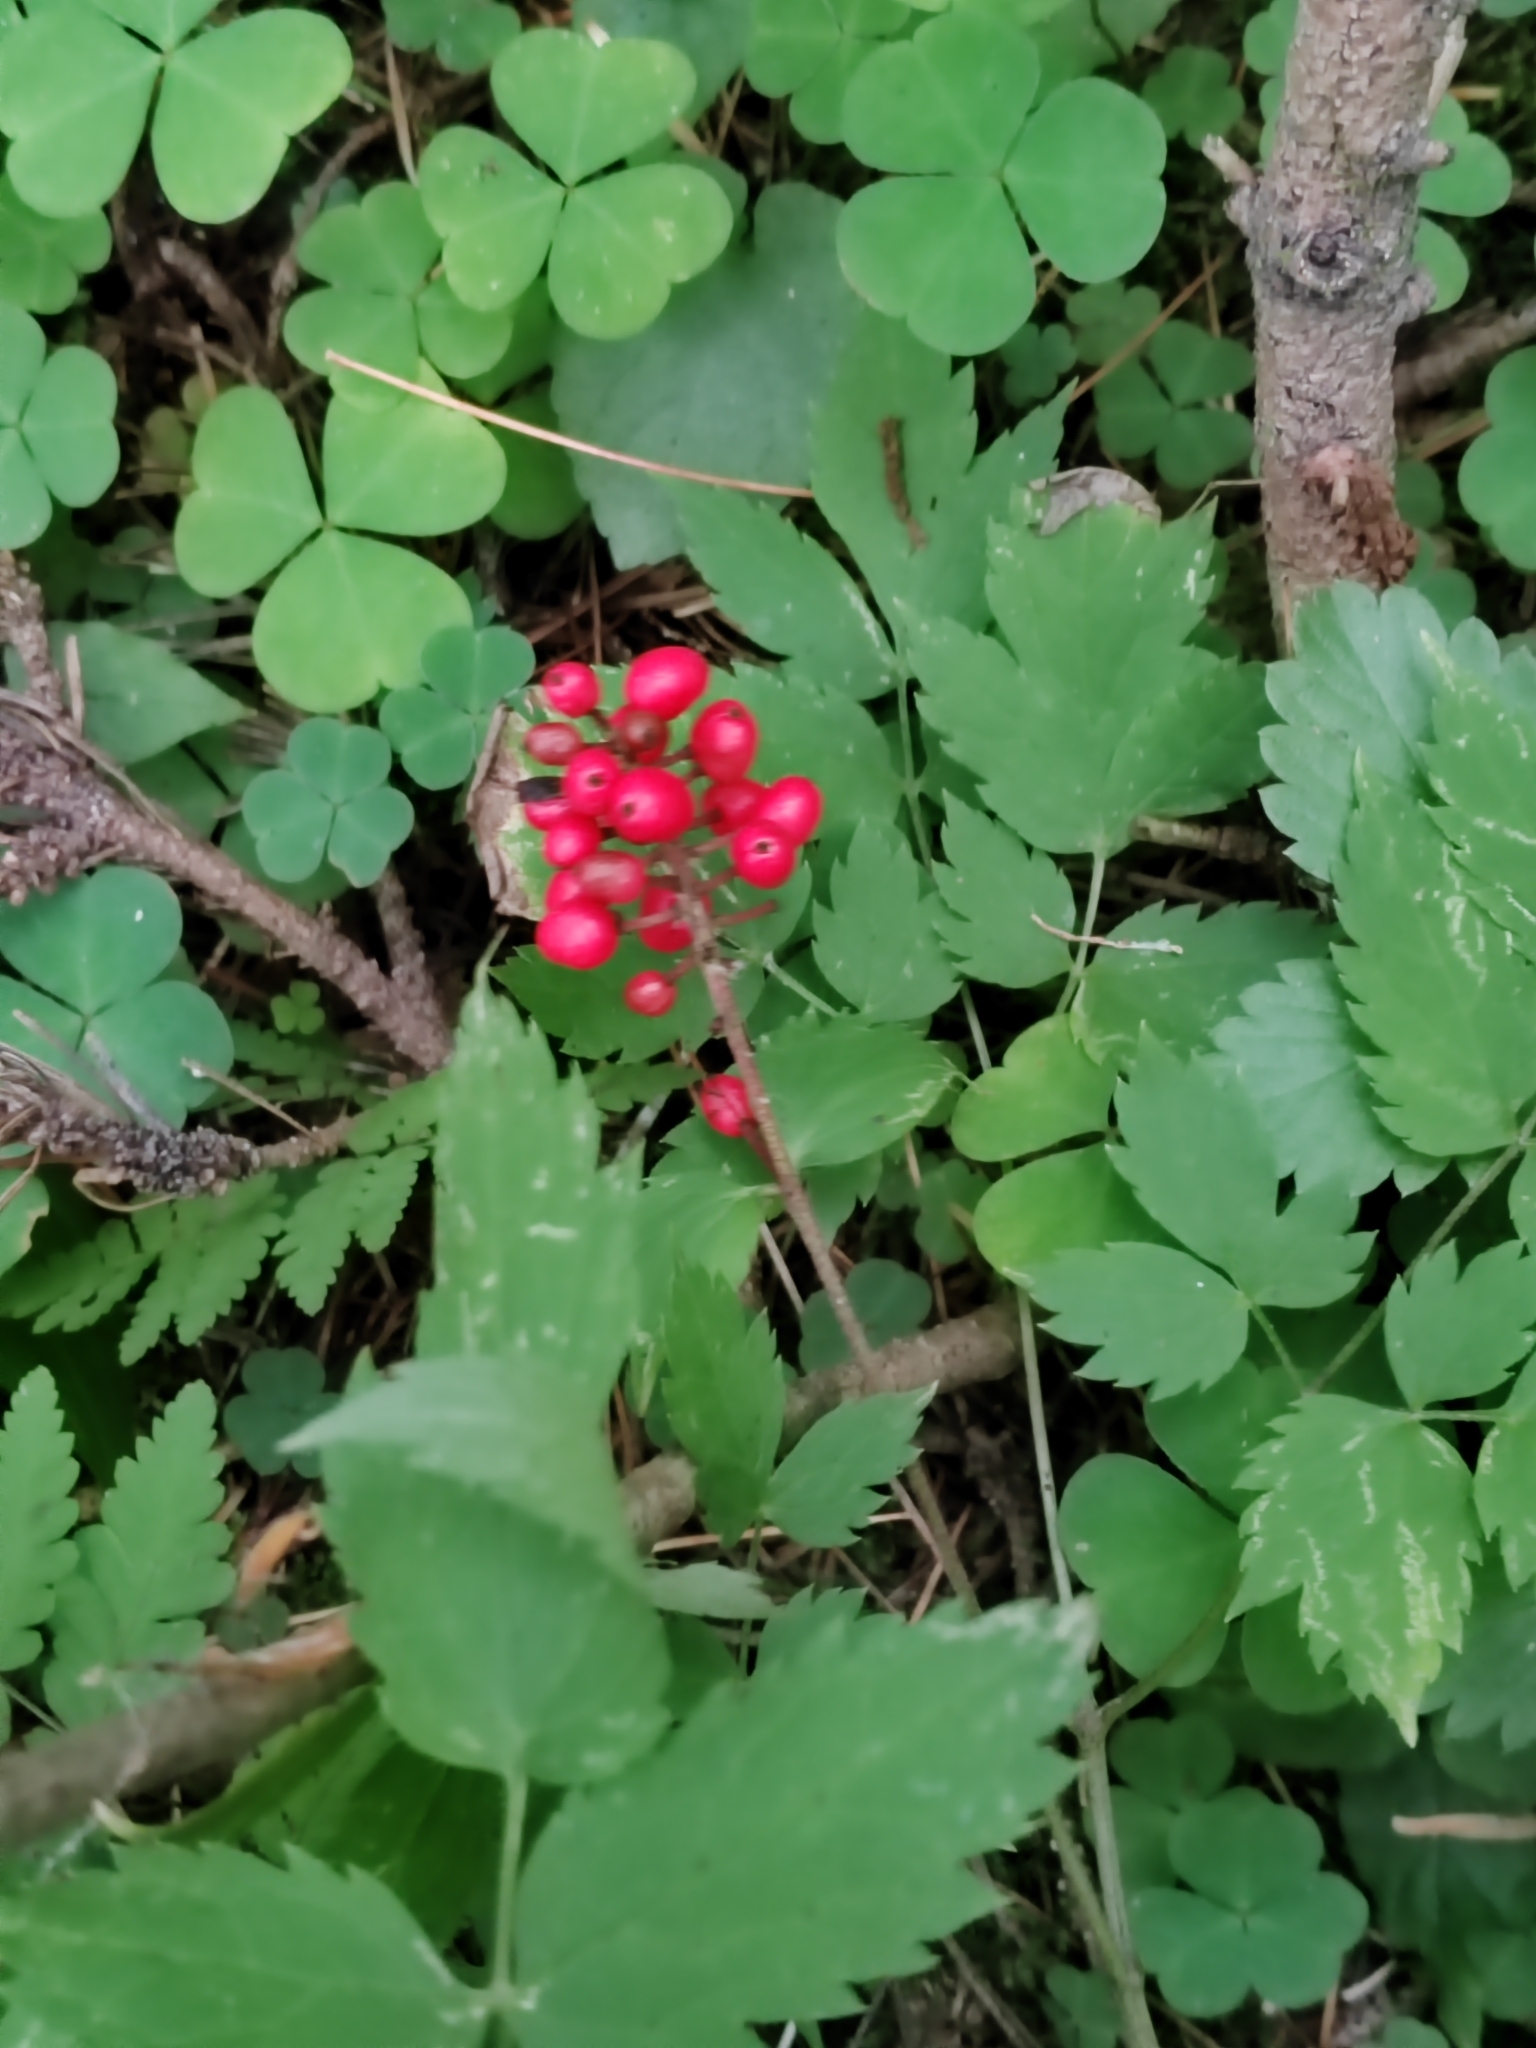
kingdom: Plantae
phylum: Tracheophyta
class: Magnoliopsida
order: Ranunculales
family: Ranunculaceae
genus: Actaea
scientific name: Actaea erythrocarpa
